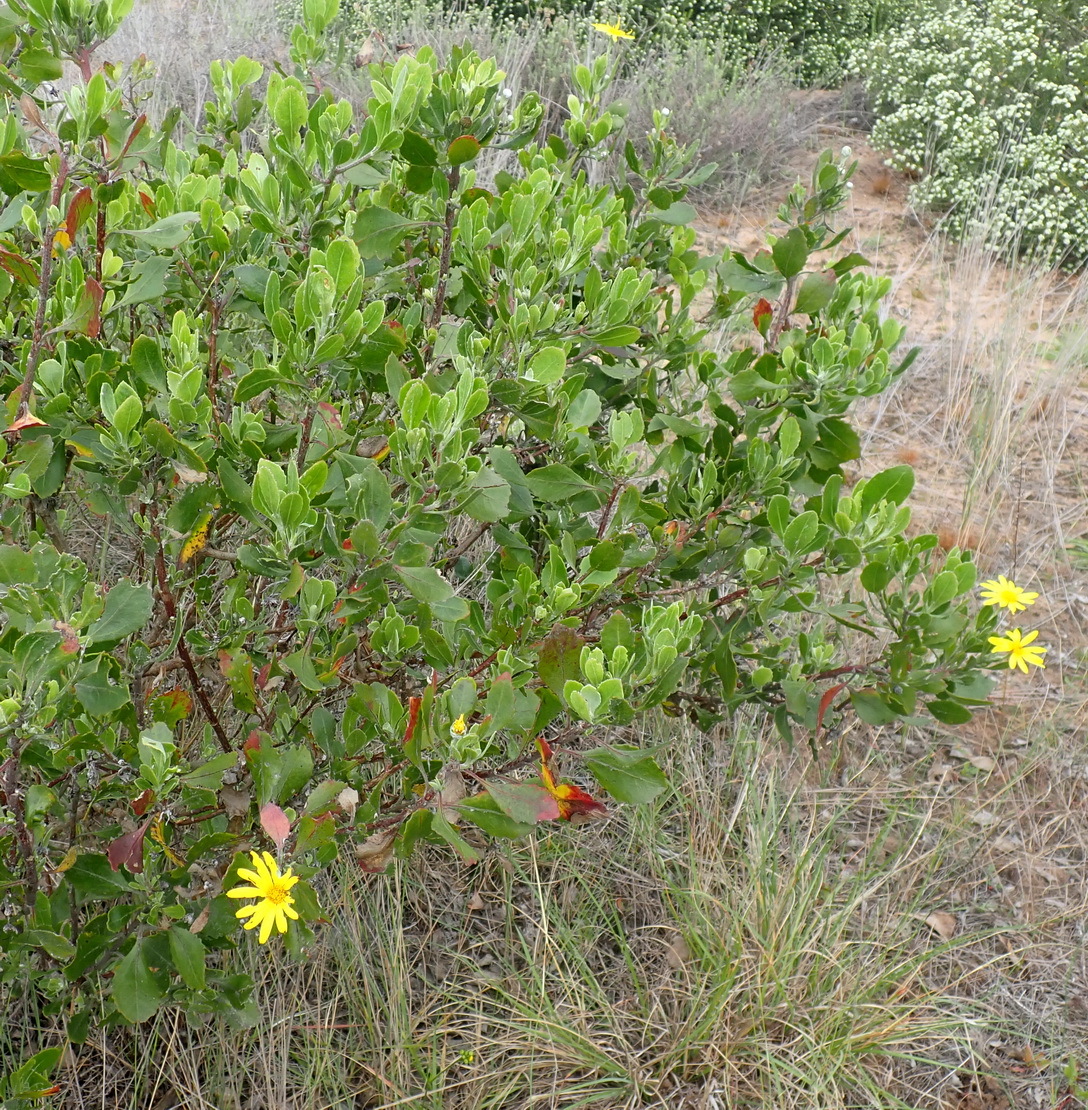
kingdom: Plantae
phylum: Tracheophyta
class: Magnoliopsida
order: Asterales
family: Asteraceae
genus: Osteospermum
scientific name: Osteospermum moniliferum
